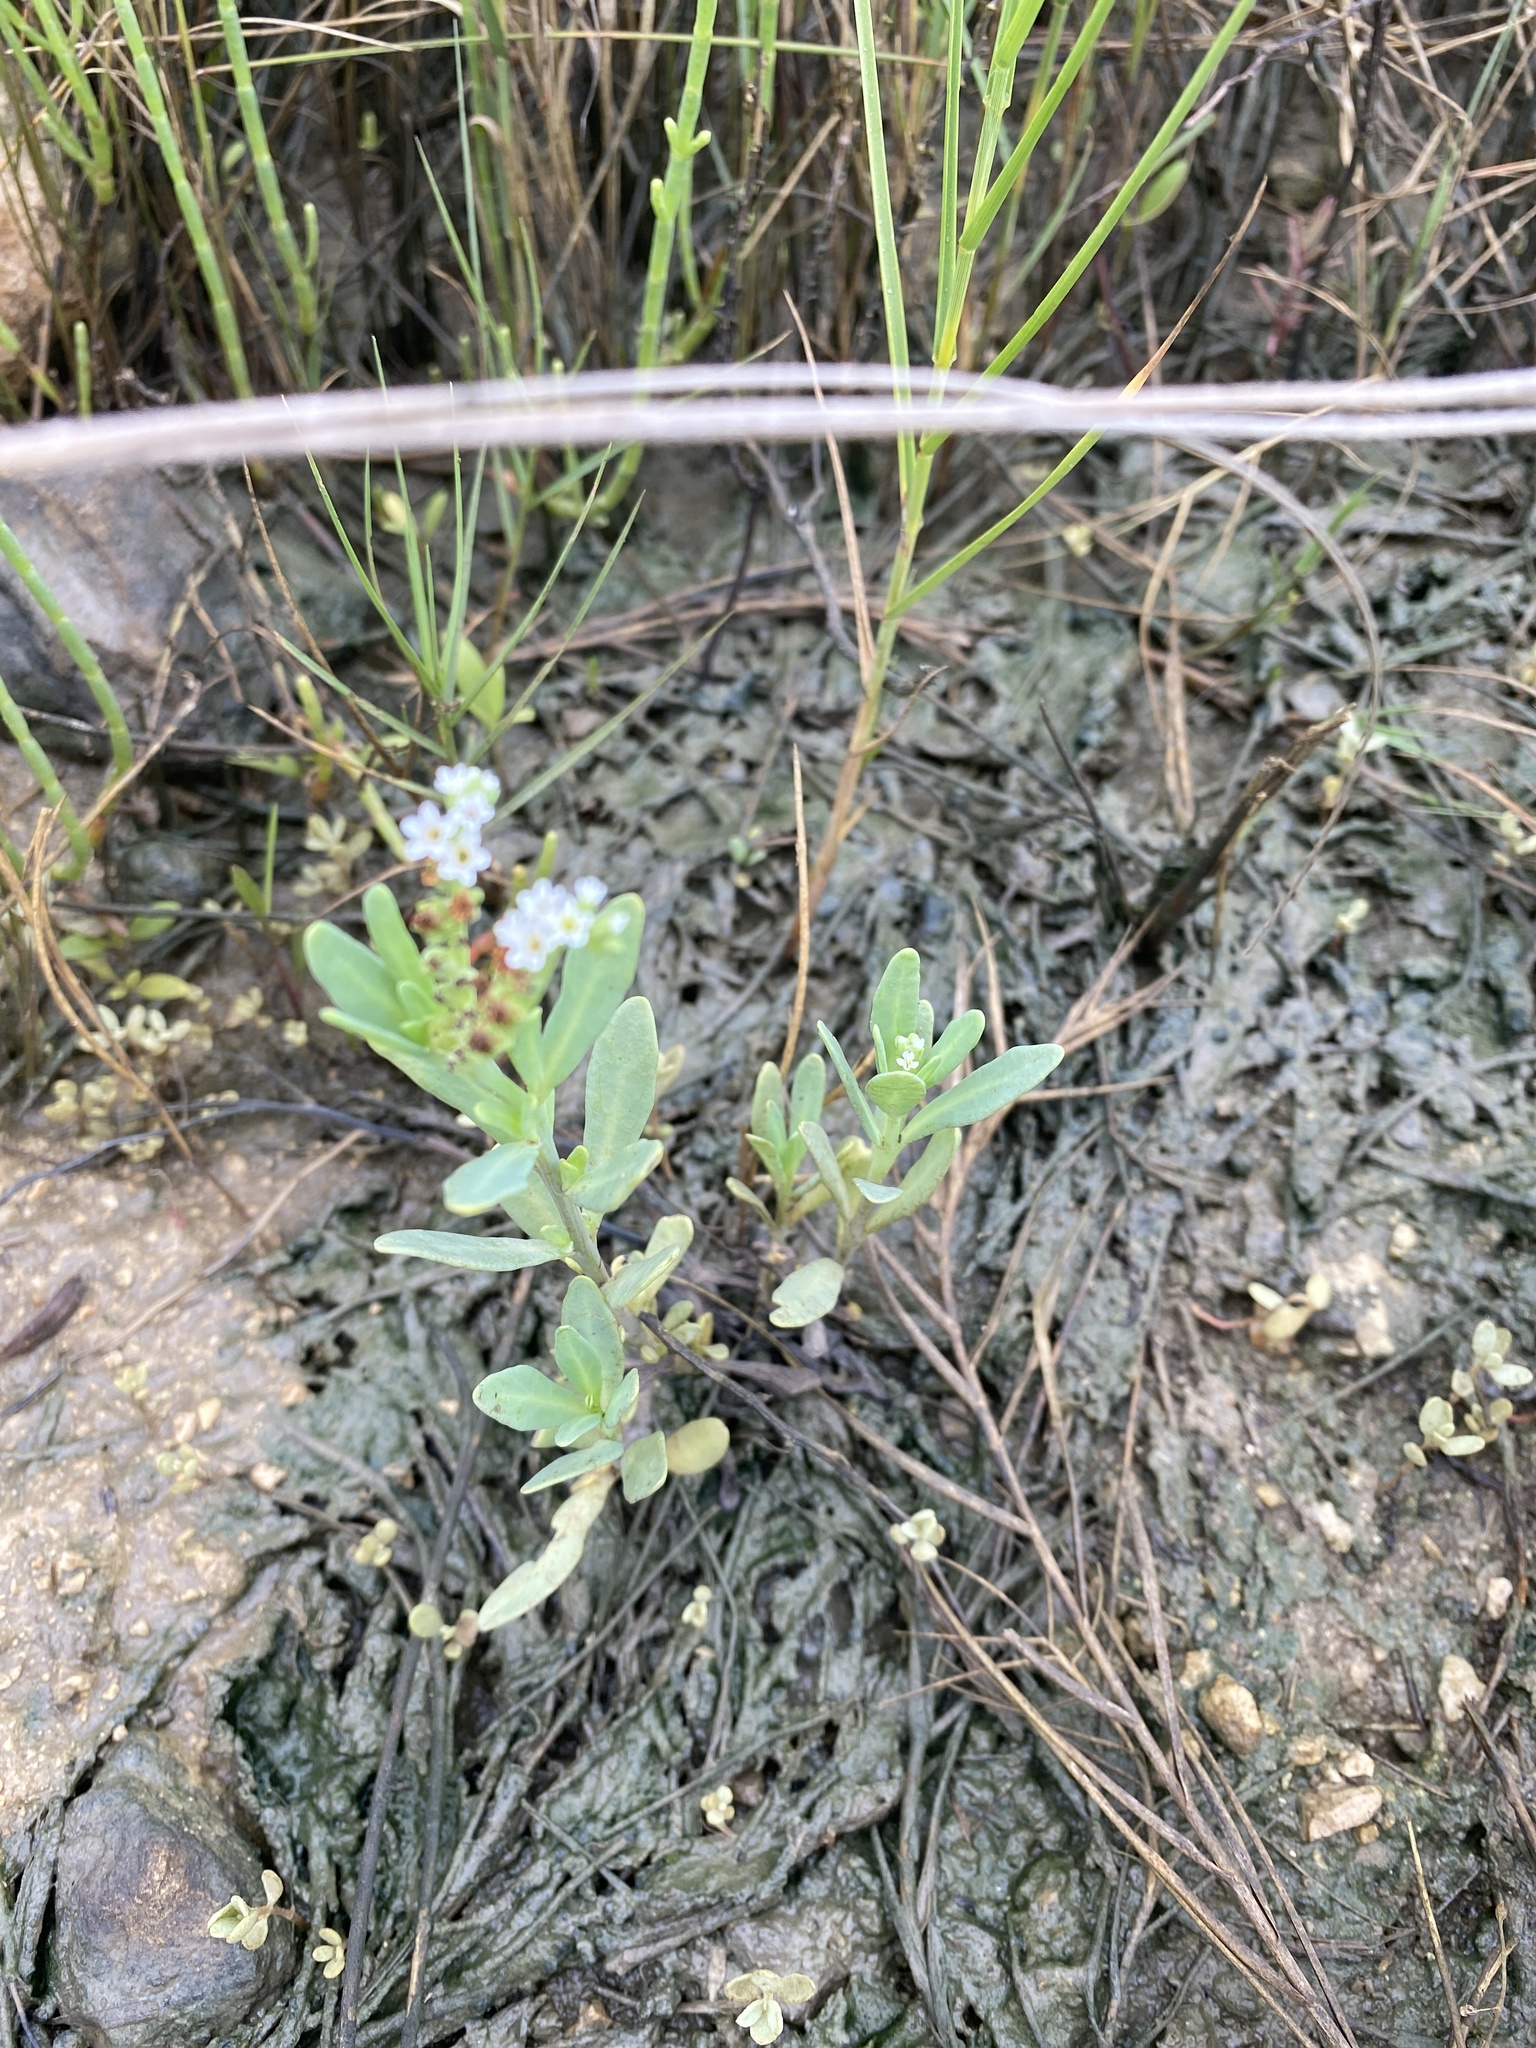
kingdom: Plantae
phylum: Tracheophyta
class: Magnoliopsida
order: Boraginales
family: Heliotropiaceae
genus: Heliotropium
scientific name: Heliotropium curassavicum
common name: Seaside heliotrope
